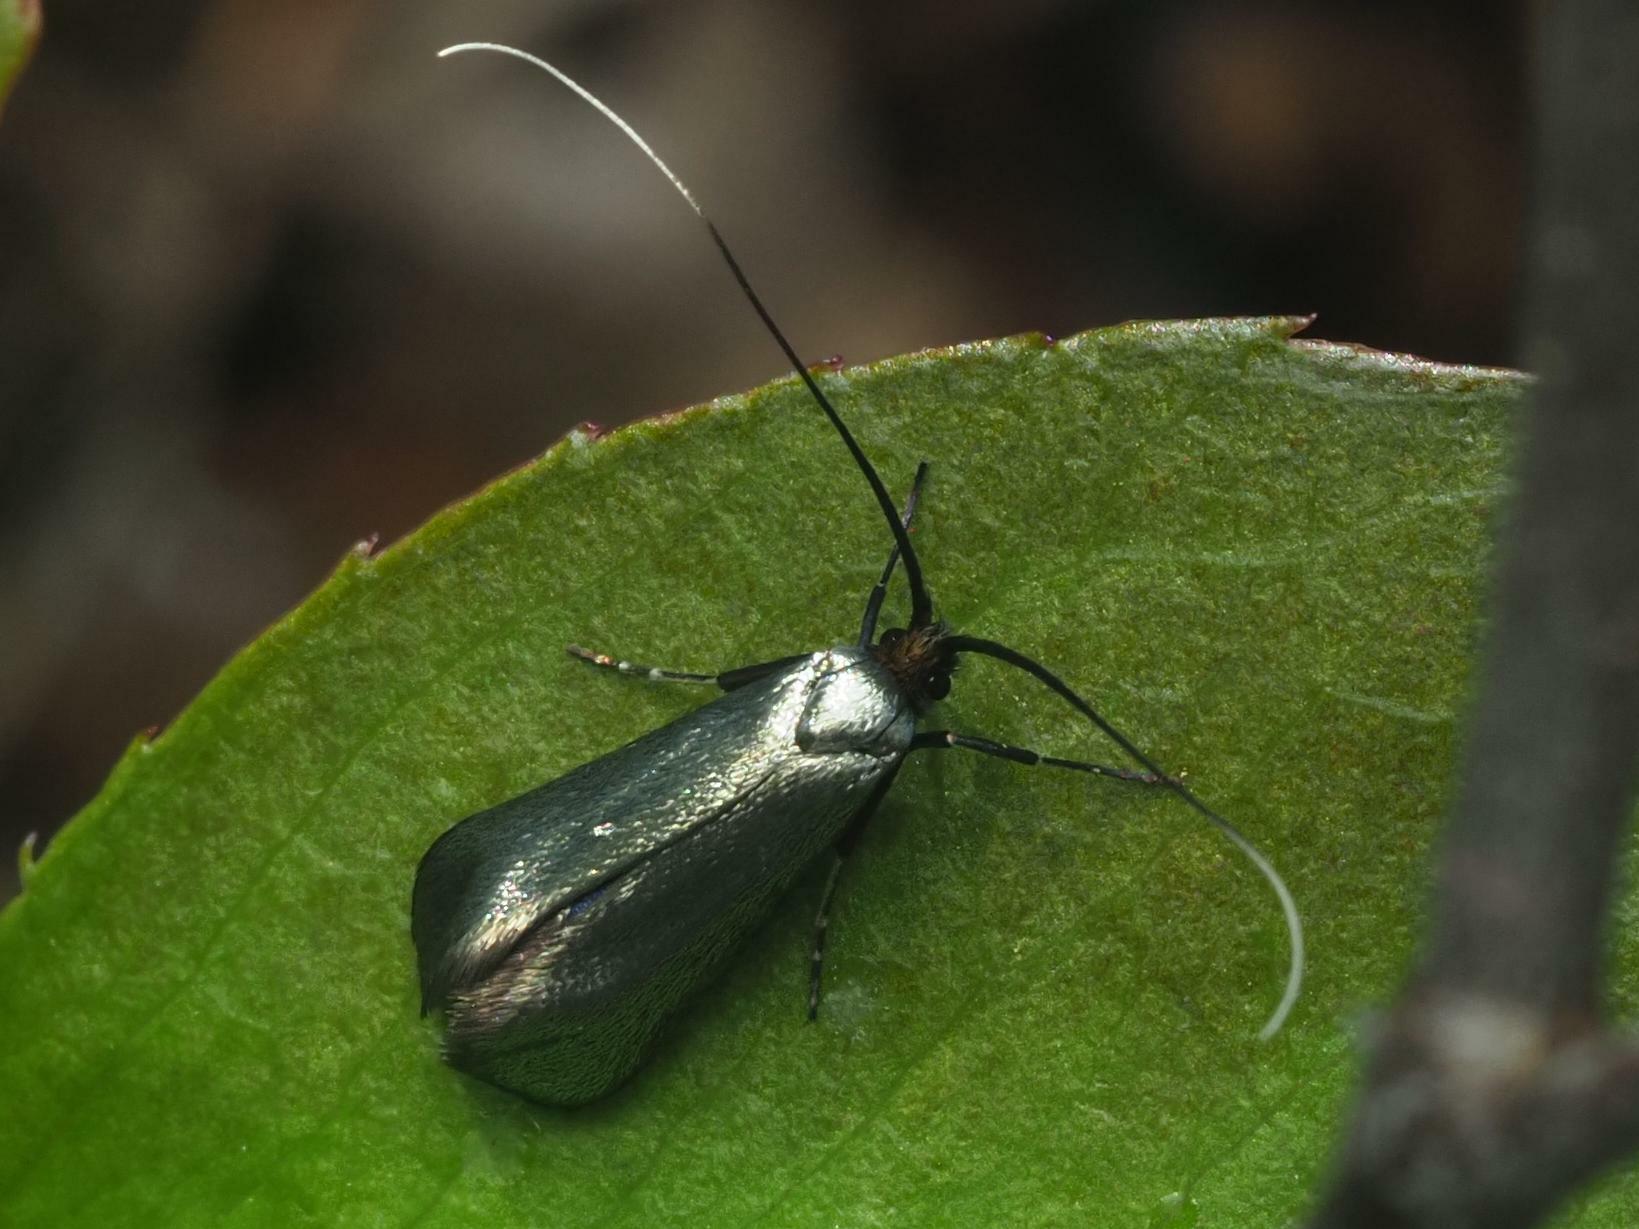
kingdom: Animalia
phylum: Arthropoda
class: Insecta
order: Lepidoptera
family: Adelidae
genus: Adela
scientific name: Adela viridella
